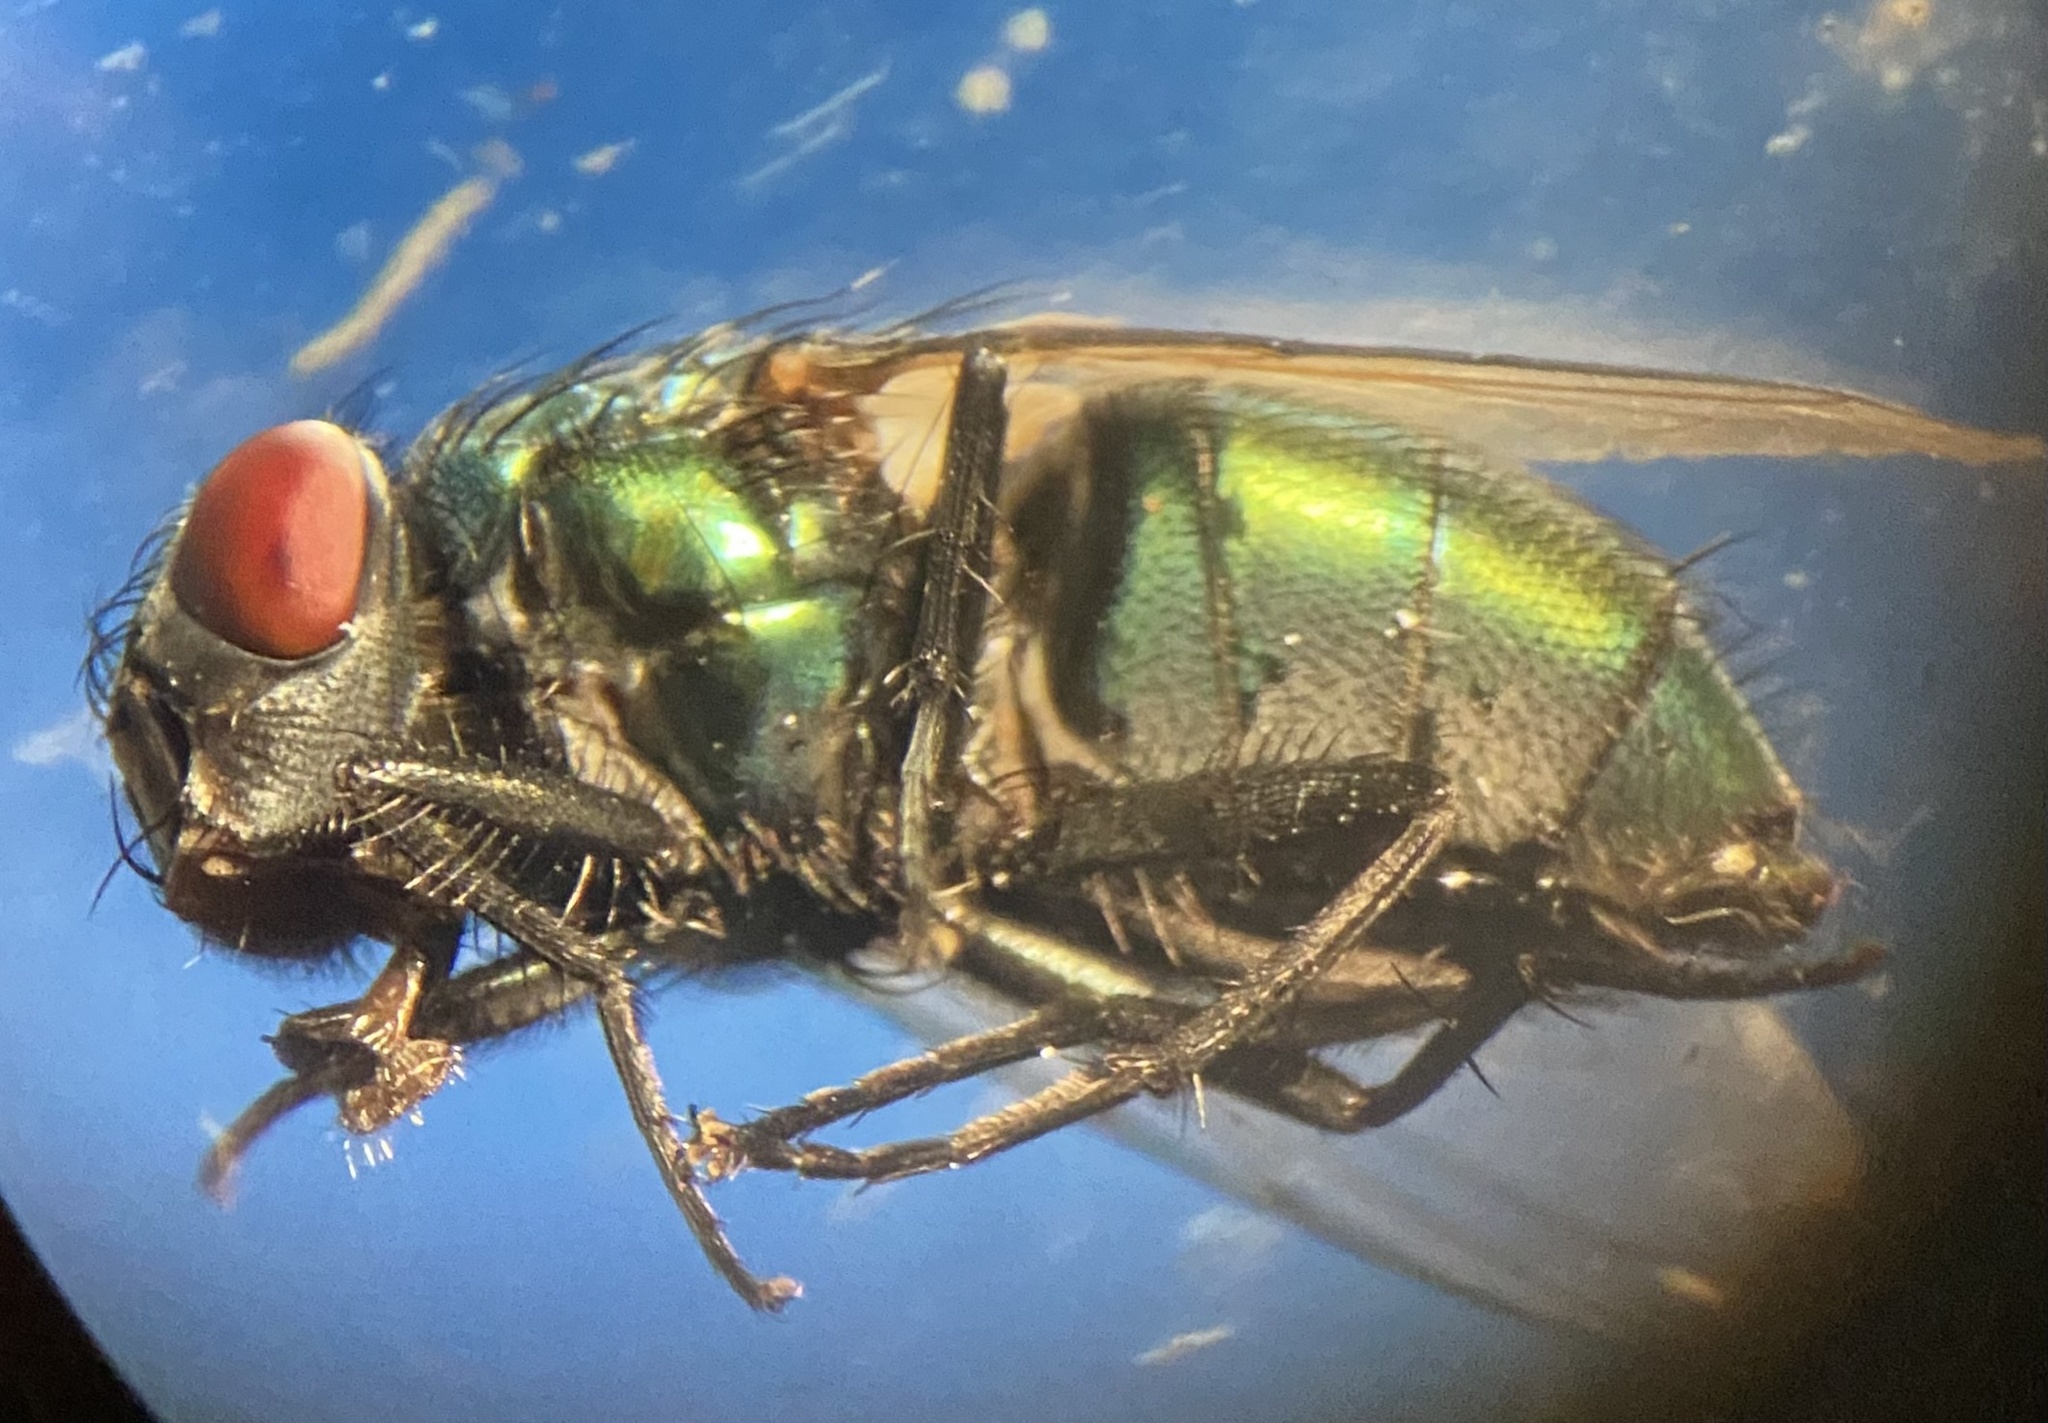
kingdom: Animalia
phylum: Arthropoda
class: Insecta
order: Diptera
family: Calliphoridae
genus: Lucilia
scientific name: Lucilia sericata
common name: Blow fly
